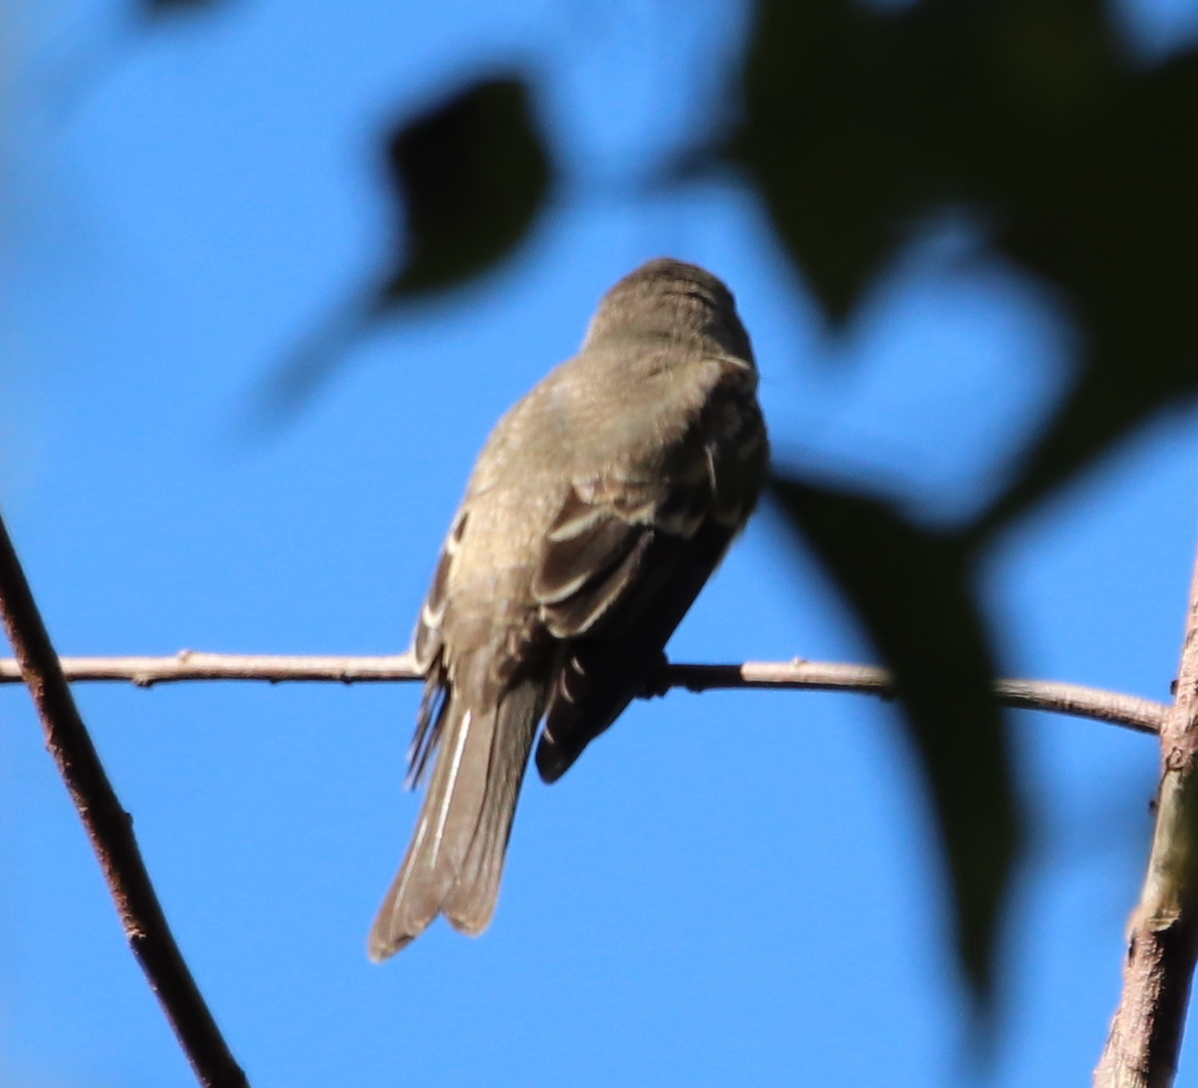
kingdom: Animalia
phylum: Chordata
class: Aves
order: Passeriformes
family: Tyrannidae
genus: Contopus
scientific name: Contopus virens
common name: Eastern wood-pewee
